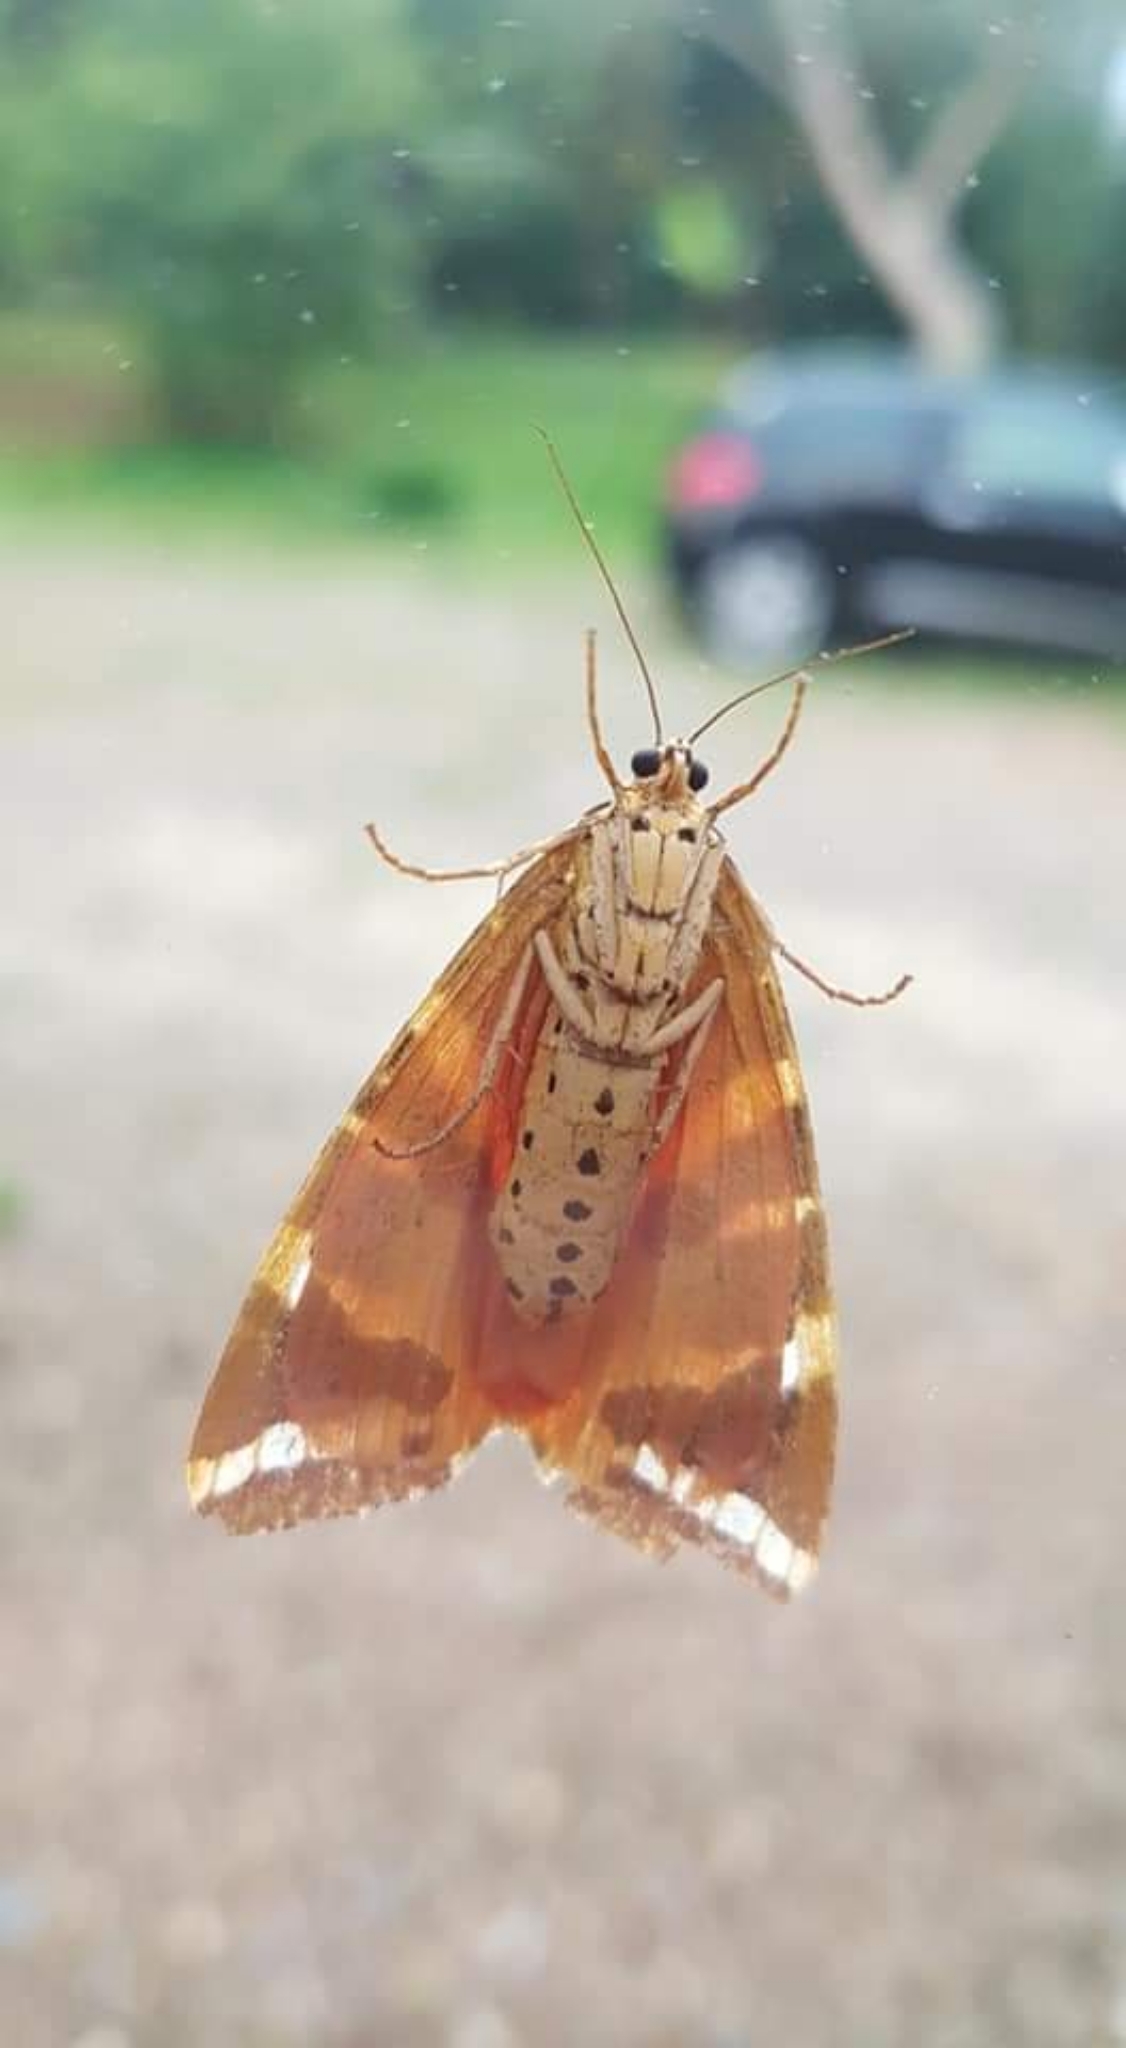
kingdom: Animalia
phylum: Arthropoda
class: Insecta
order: Lepidoptera
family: Erebidae
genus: Euplagia
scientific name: Euplagia quadripunctaria
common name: Jersey tiger
